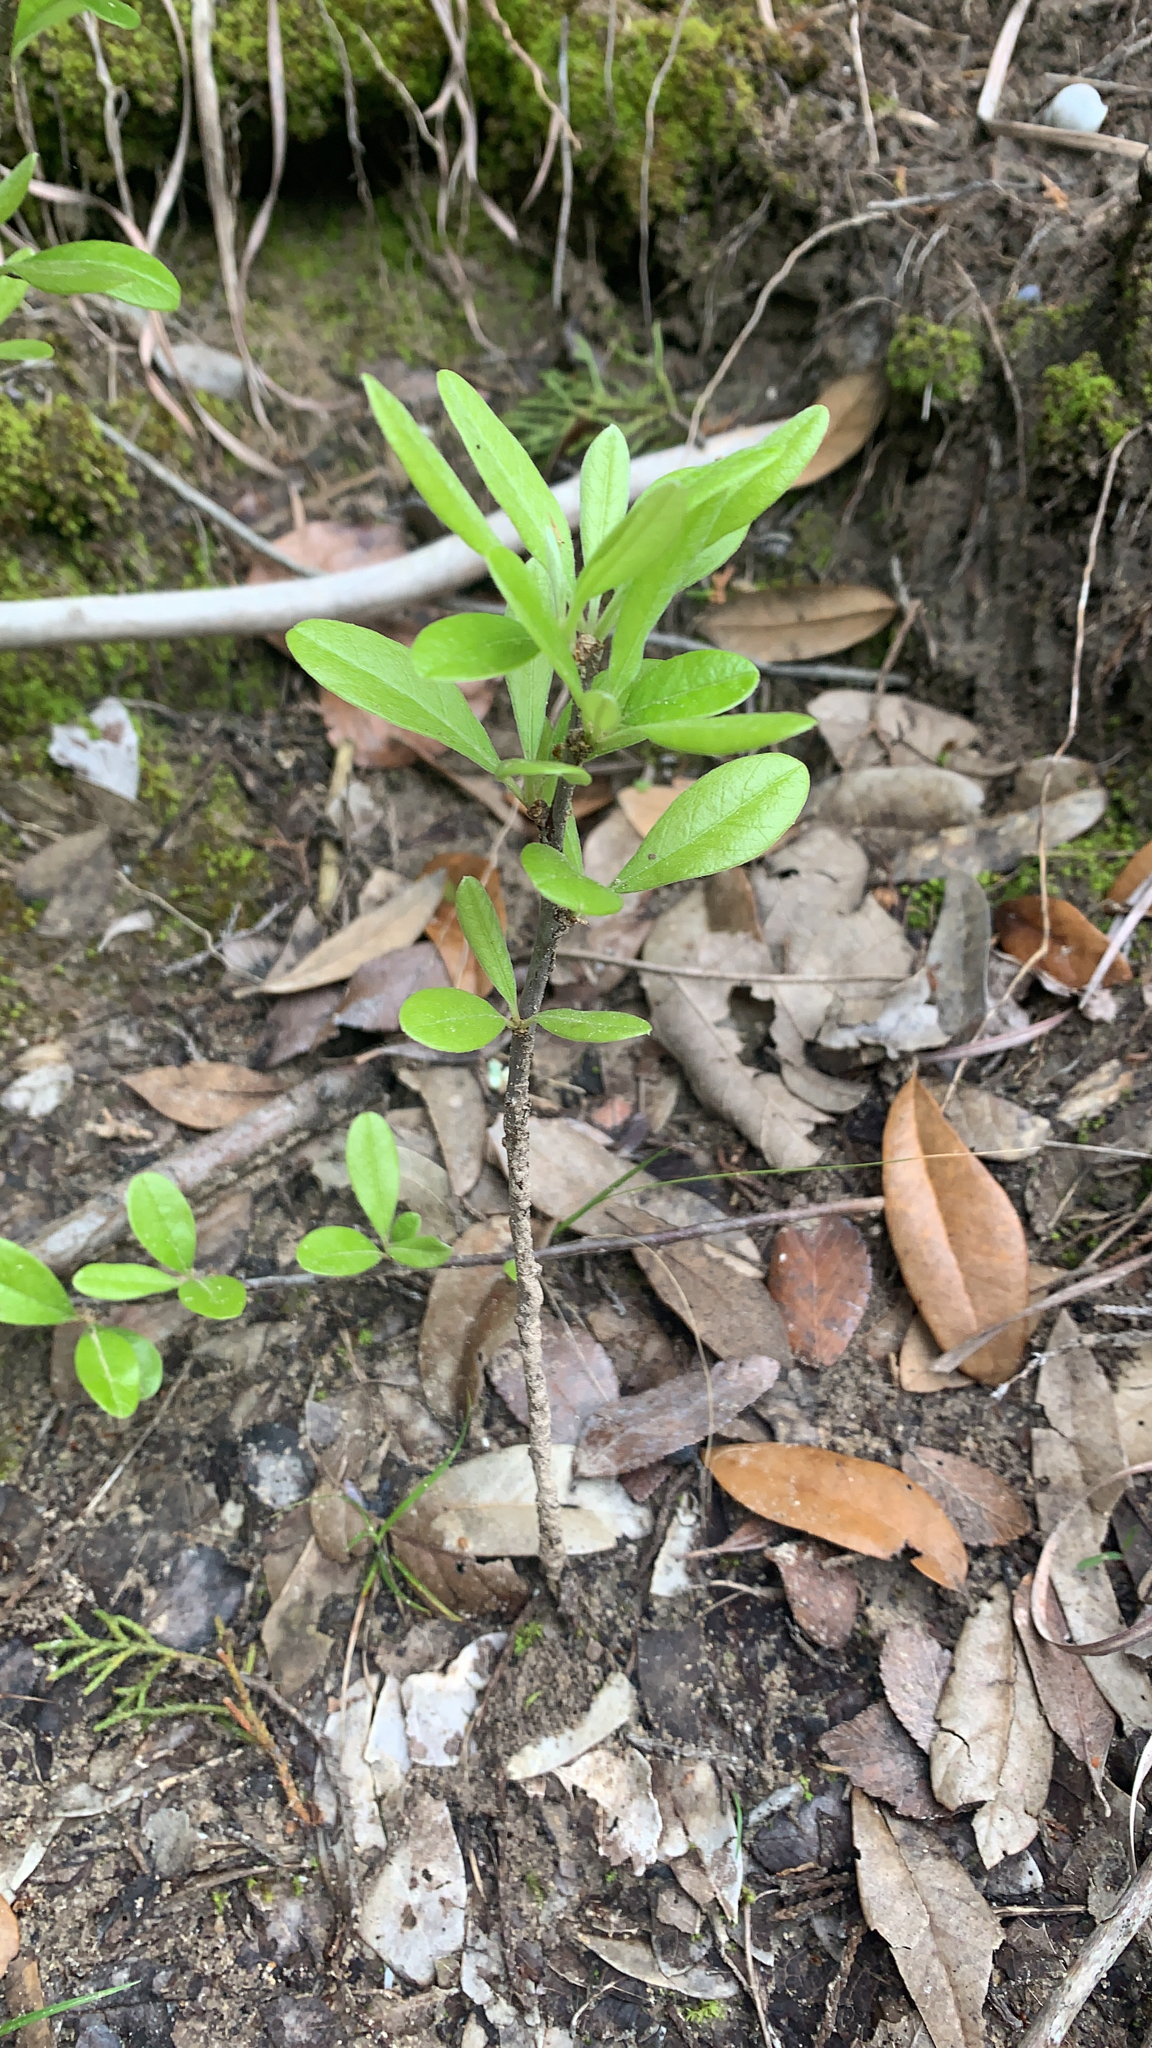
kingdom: Plantae
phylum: Tracheophyta
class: Magnoliopsida
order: Ericales
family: Sapotaceae
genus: Sideroxylon
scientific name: Sideroxylon lanuginosum
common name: Chittamwood
